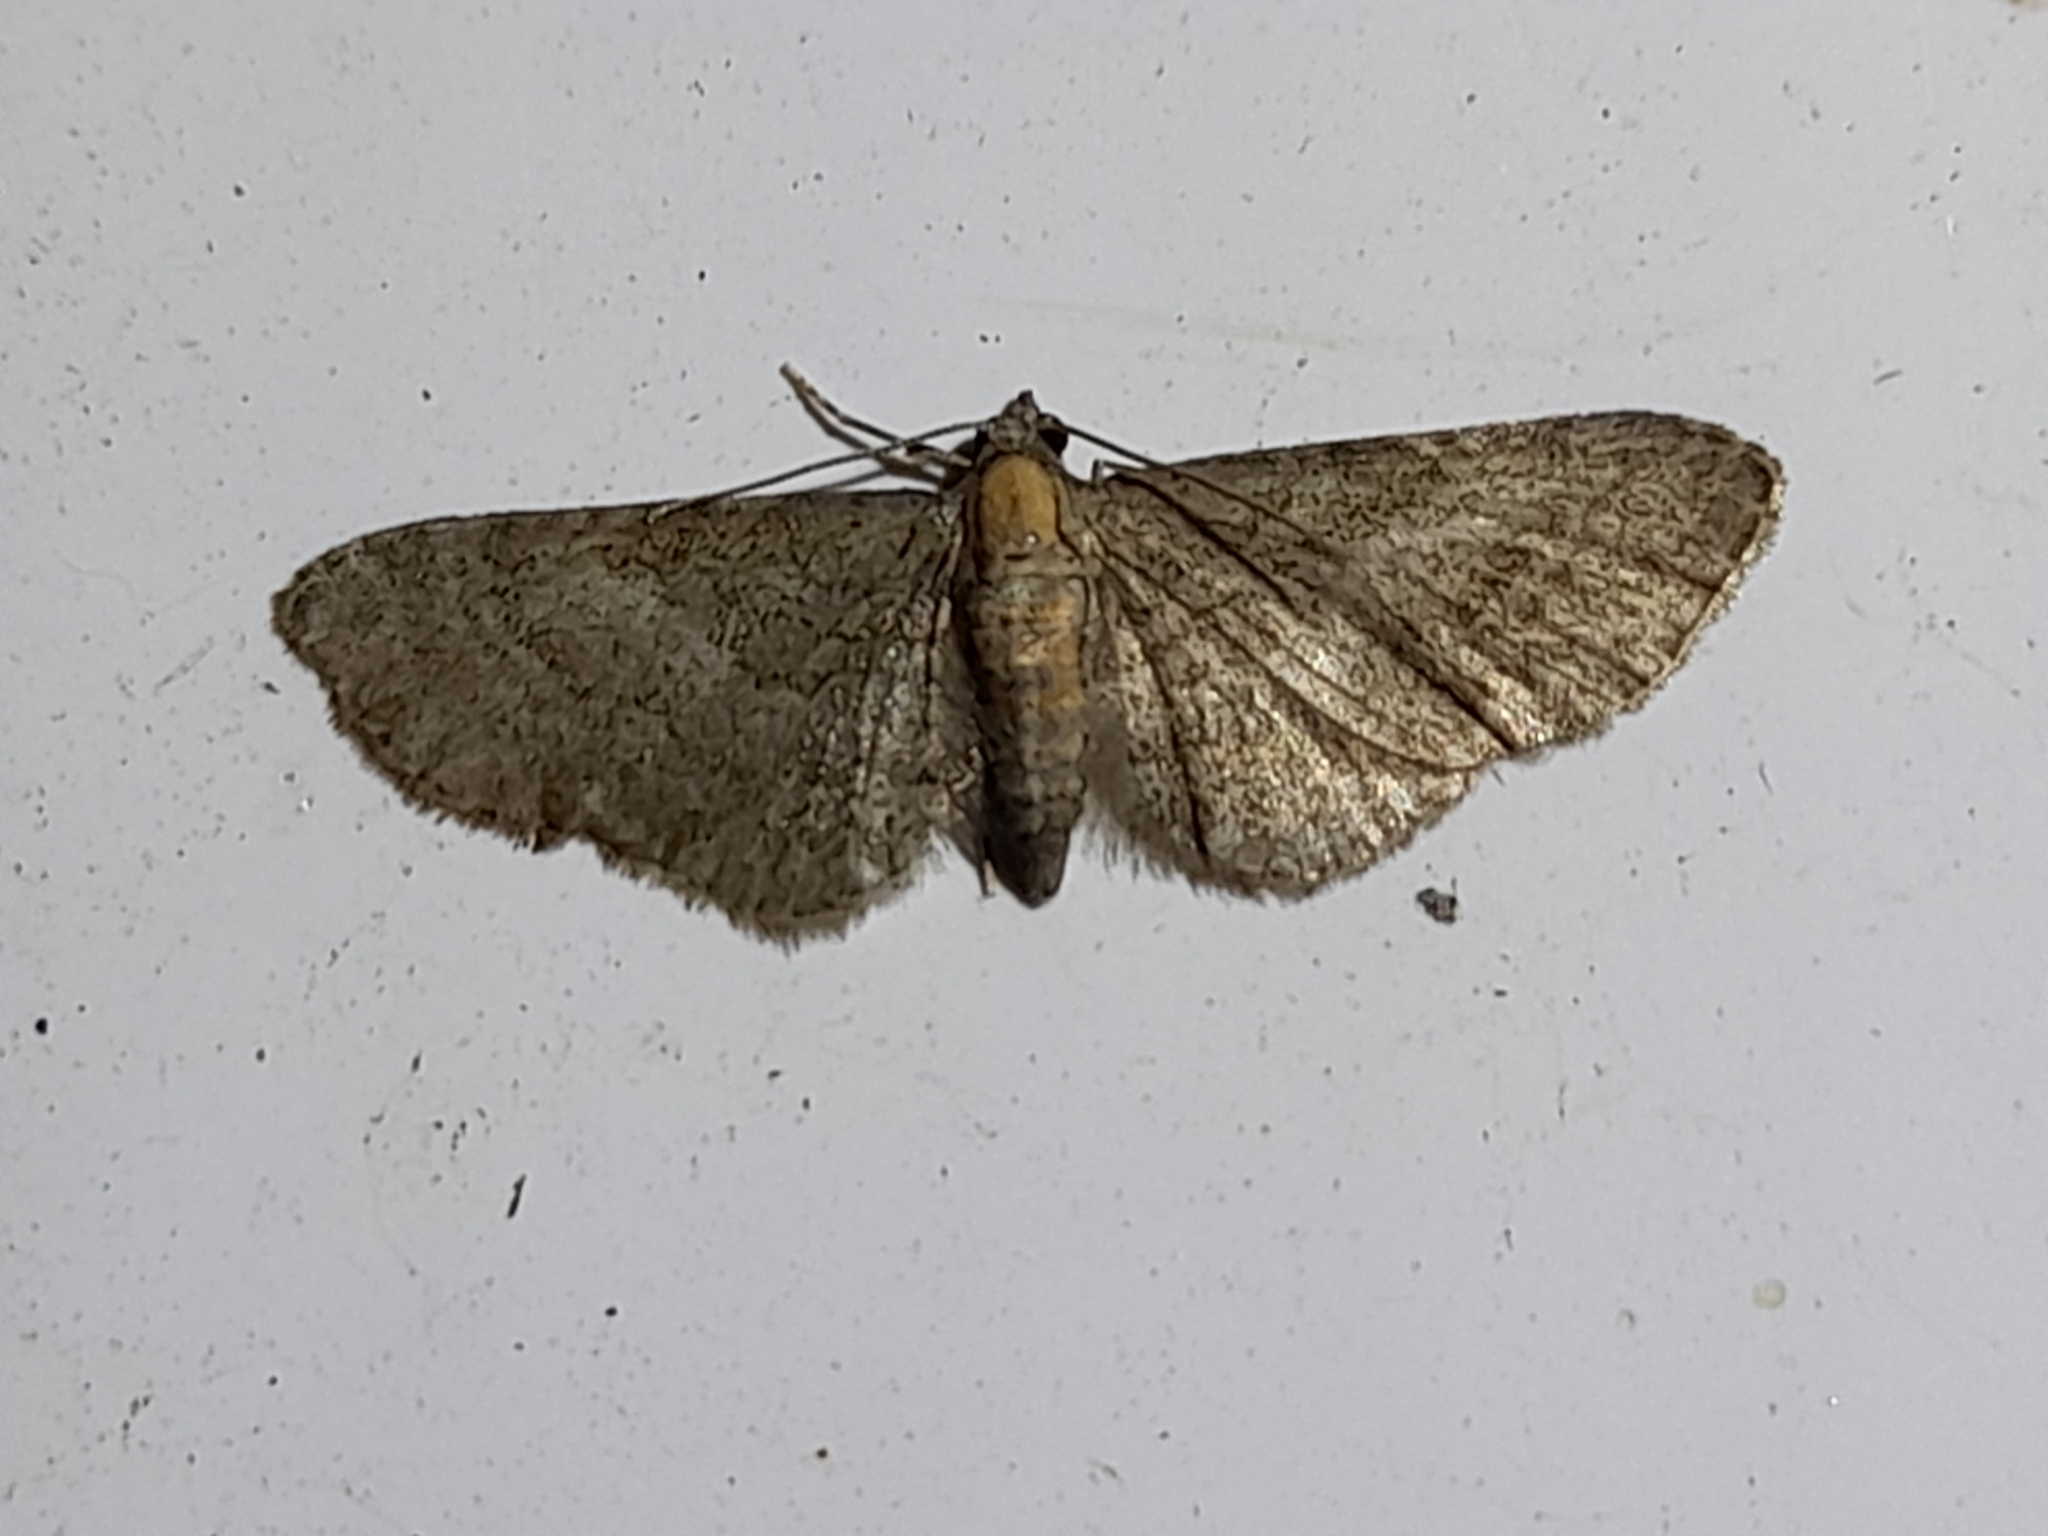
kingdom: Animalia
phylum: Arthropoda
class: Insecta
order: Lepidoptera
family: Geometridae
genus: Eupithecia
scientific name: Eupithecia haworthiata
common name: Haworth's pug
